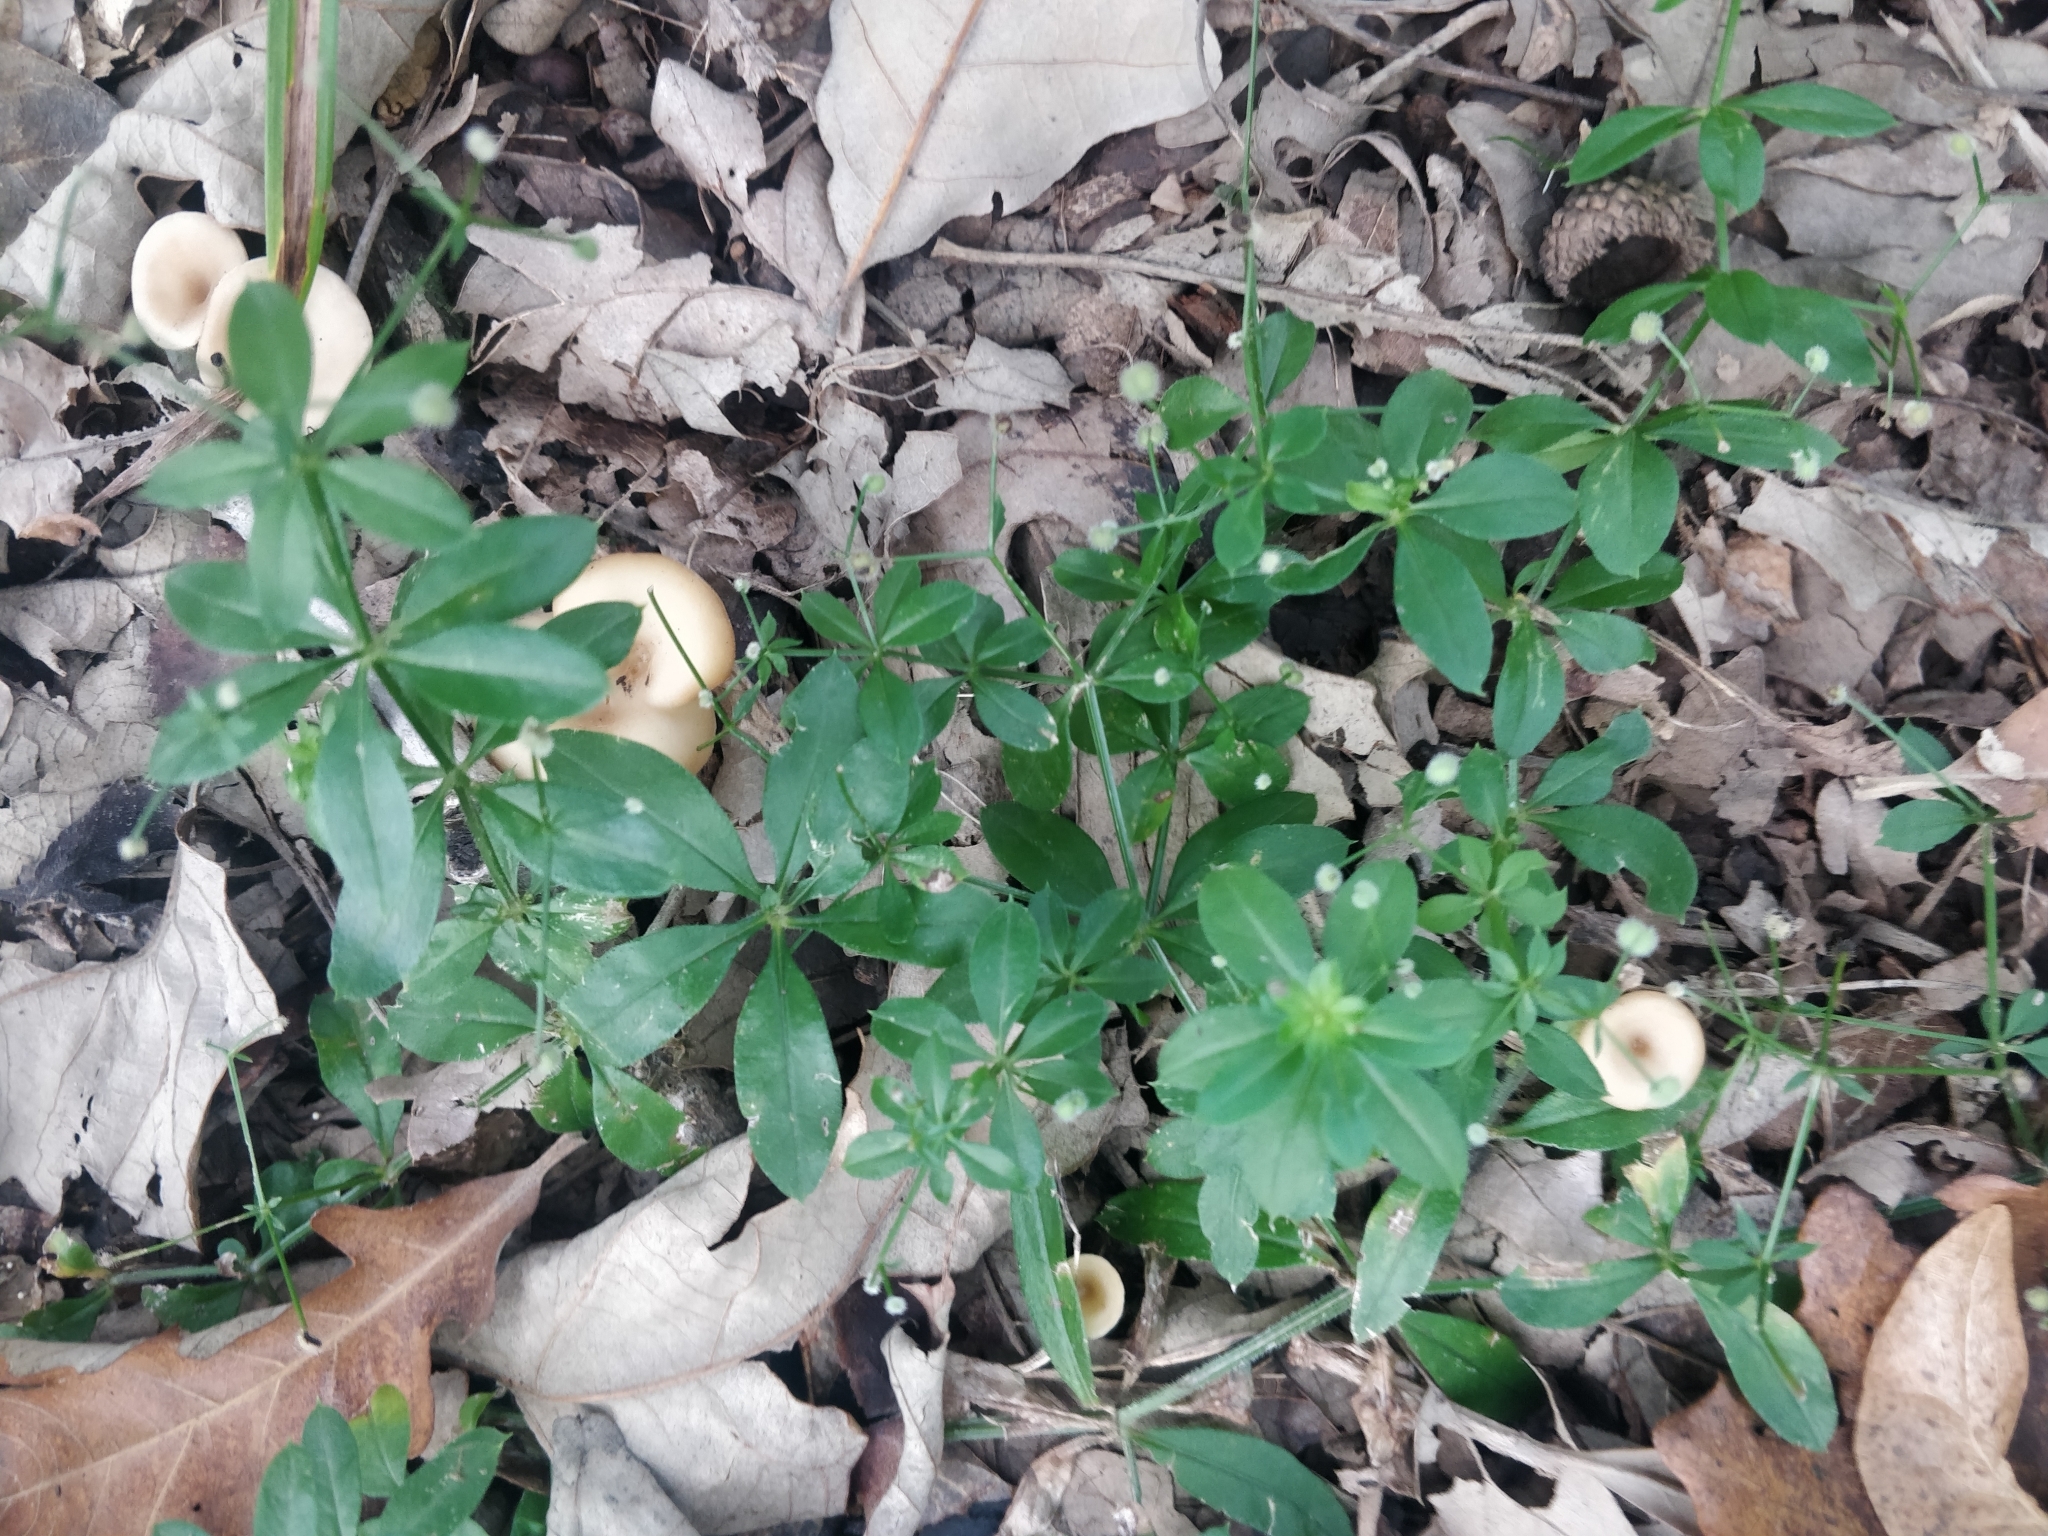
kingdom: Plantae
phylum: Tracheophyta
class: Magnoliopsida
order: Gentianales
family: Rubiaceae
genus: Galium
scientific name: Galium triflorum
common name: Fragrant bedstraw
